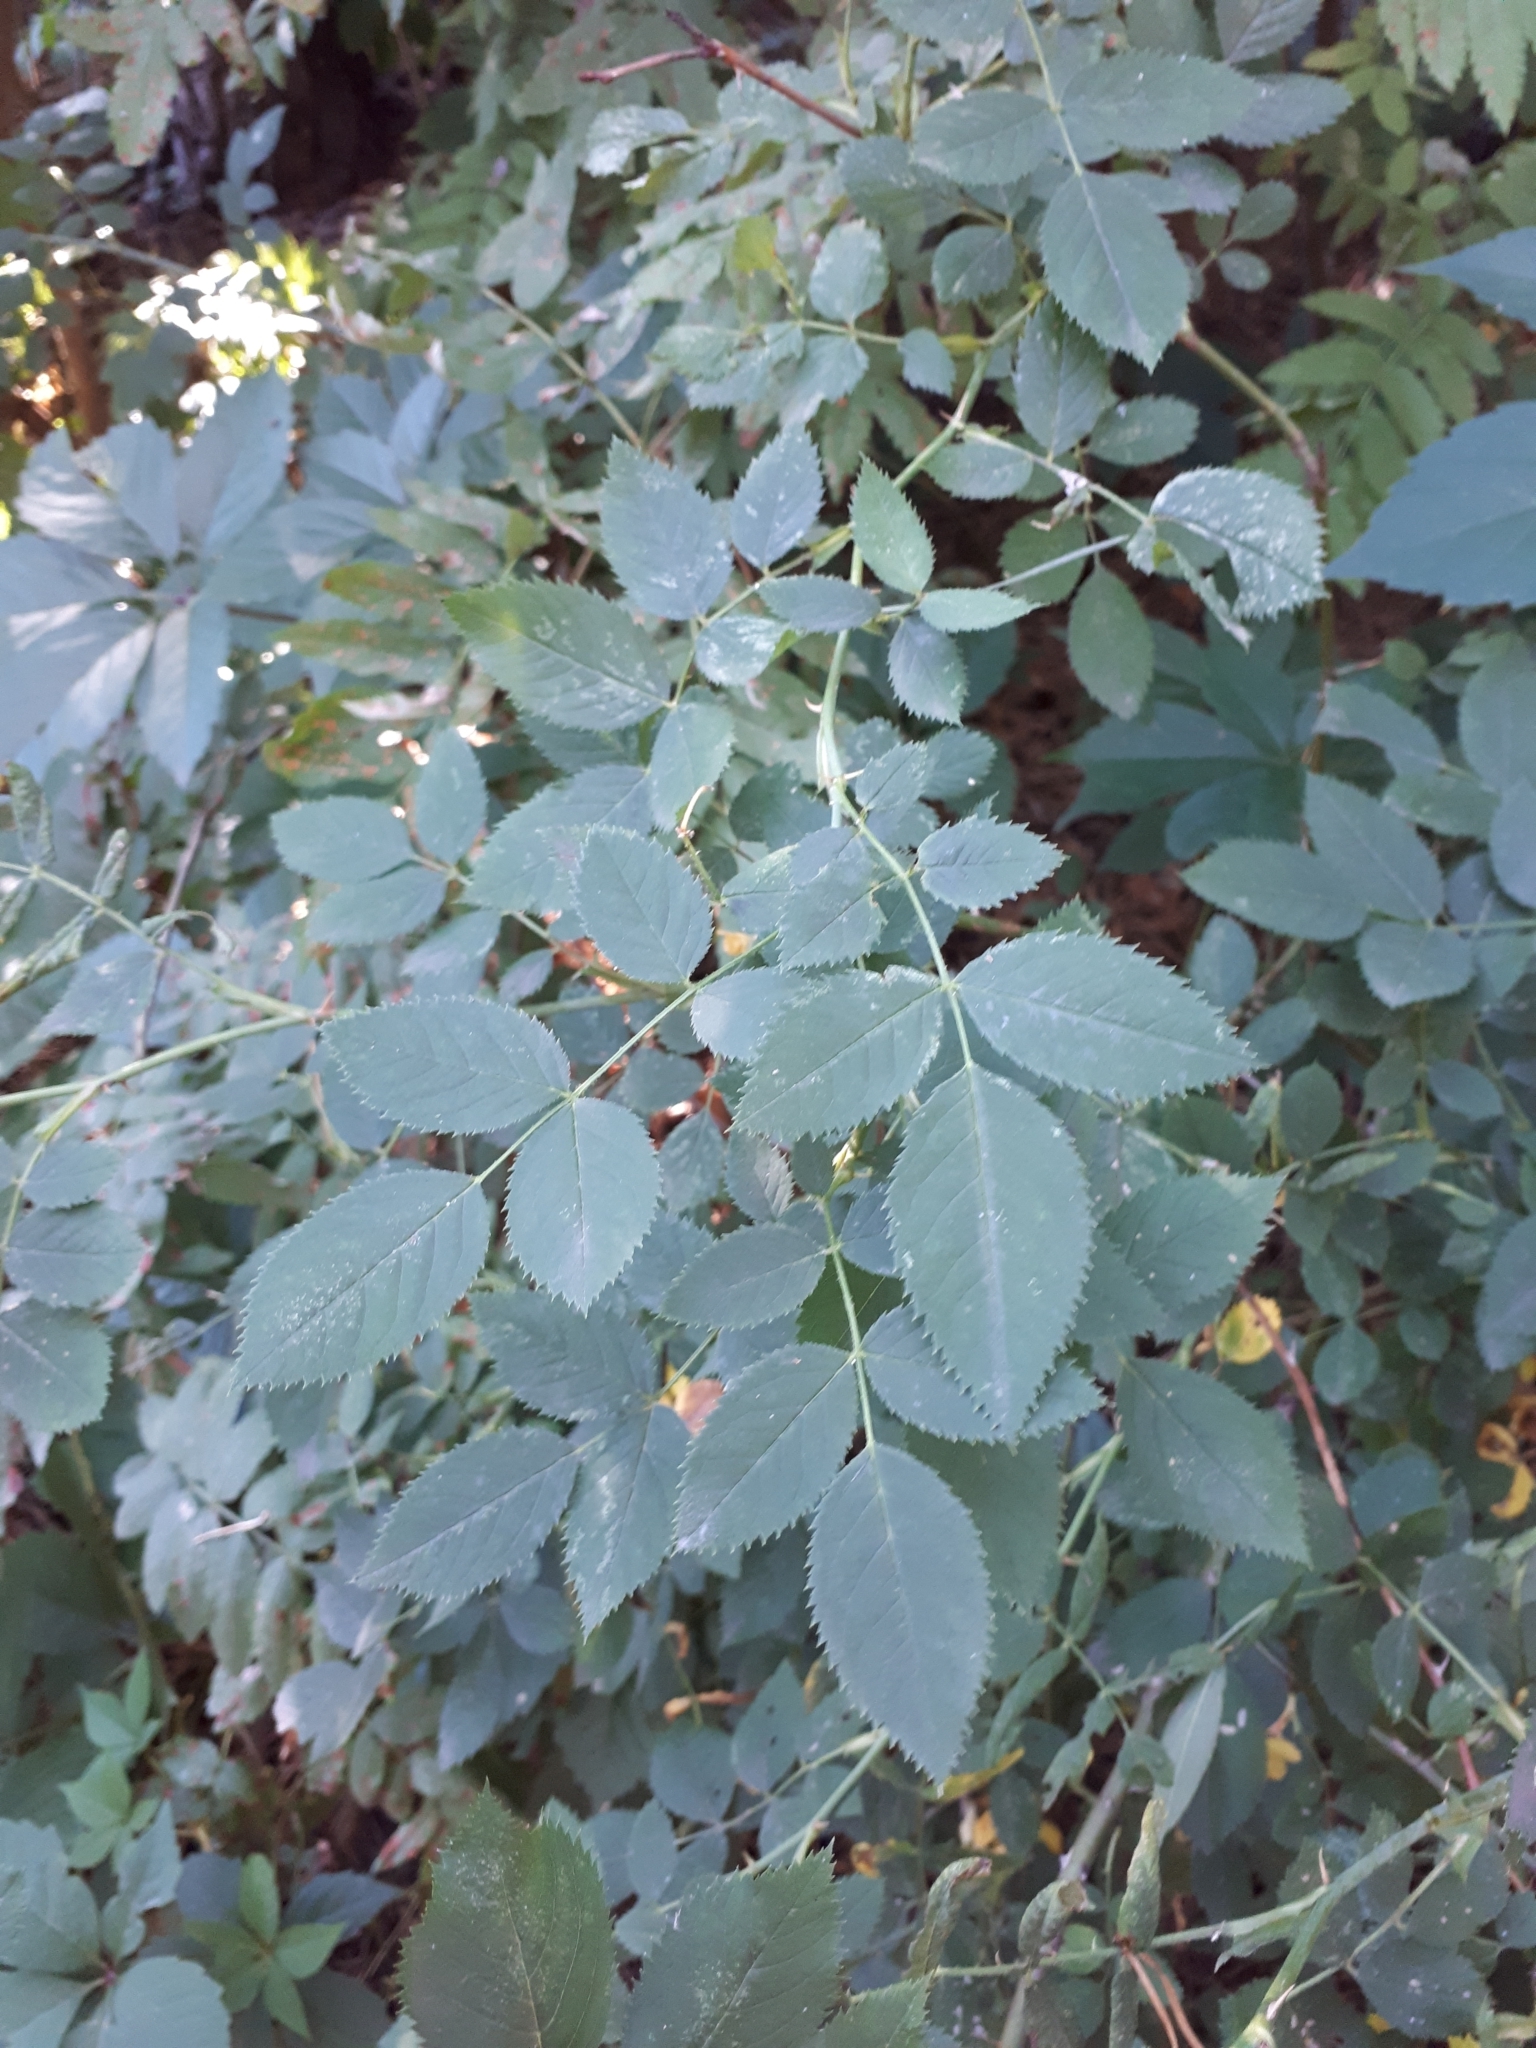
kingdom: Plantae
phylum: Tracheophyta
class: Magnoliopsida
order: Rosales
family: Rosaceae
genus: Rosa
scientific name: Rosa
